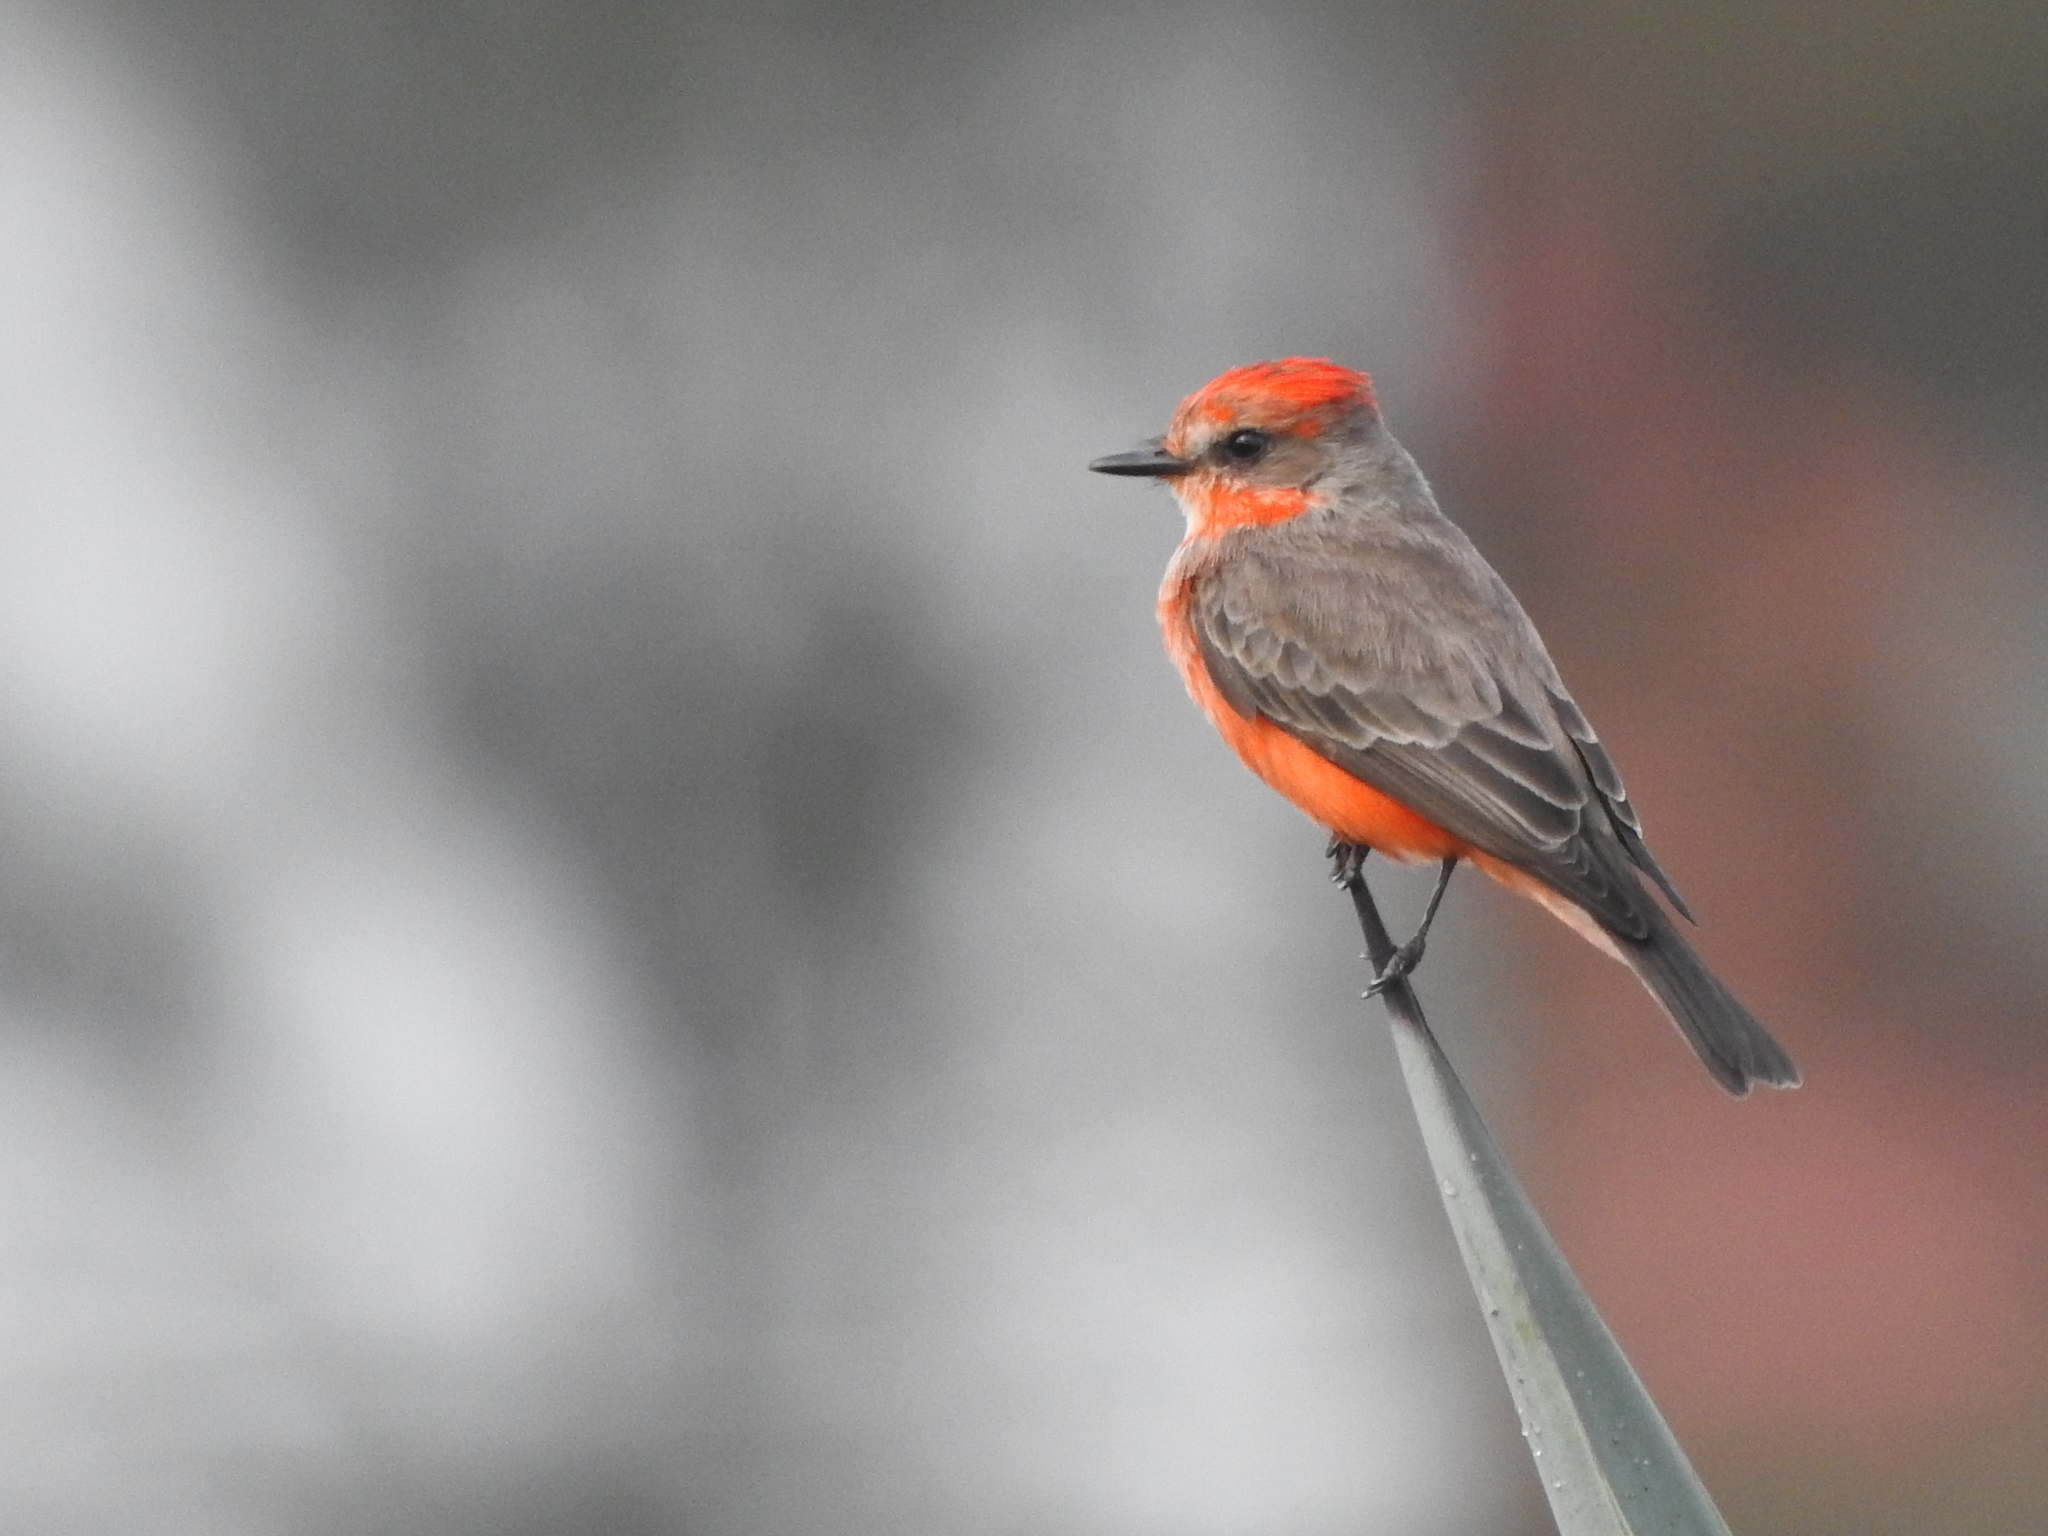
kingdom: Animalia
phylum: Chordata
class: Aves
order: Passeriformes
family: Tyrannidae
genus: Pyrocephalus
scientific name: Pyrocephalus rubinus
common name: Vermilion flycatcher
